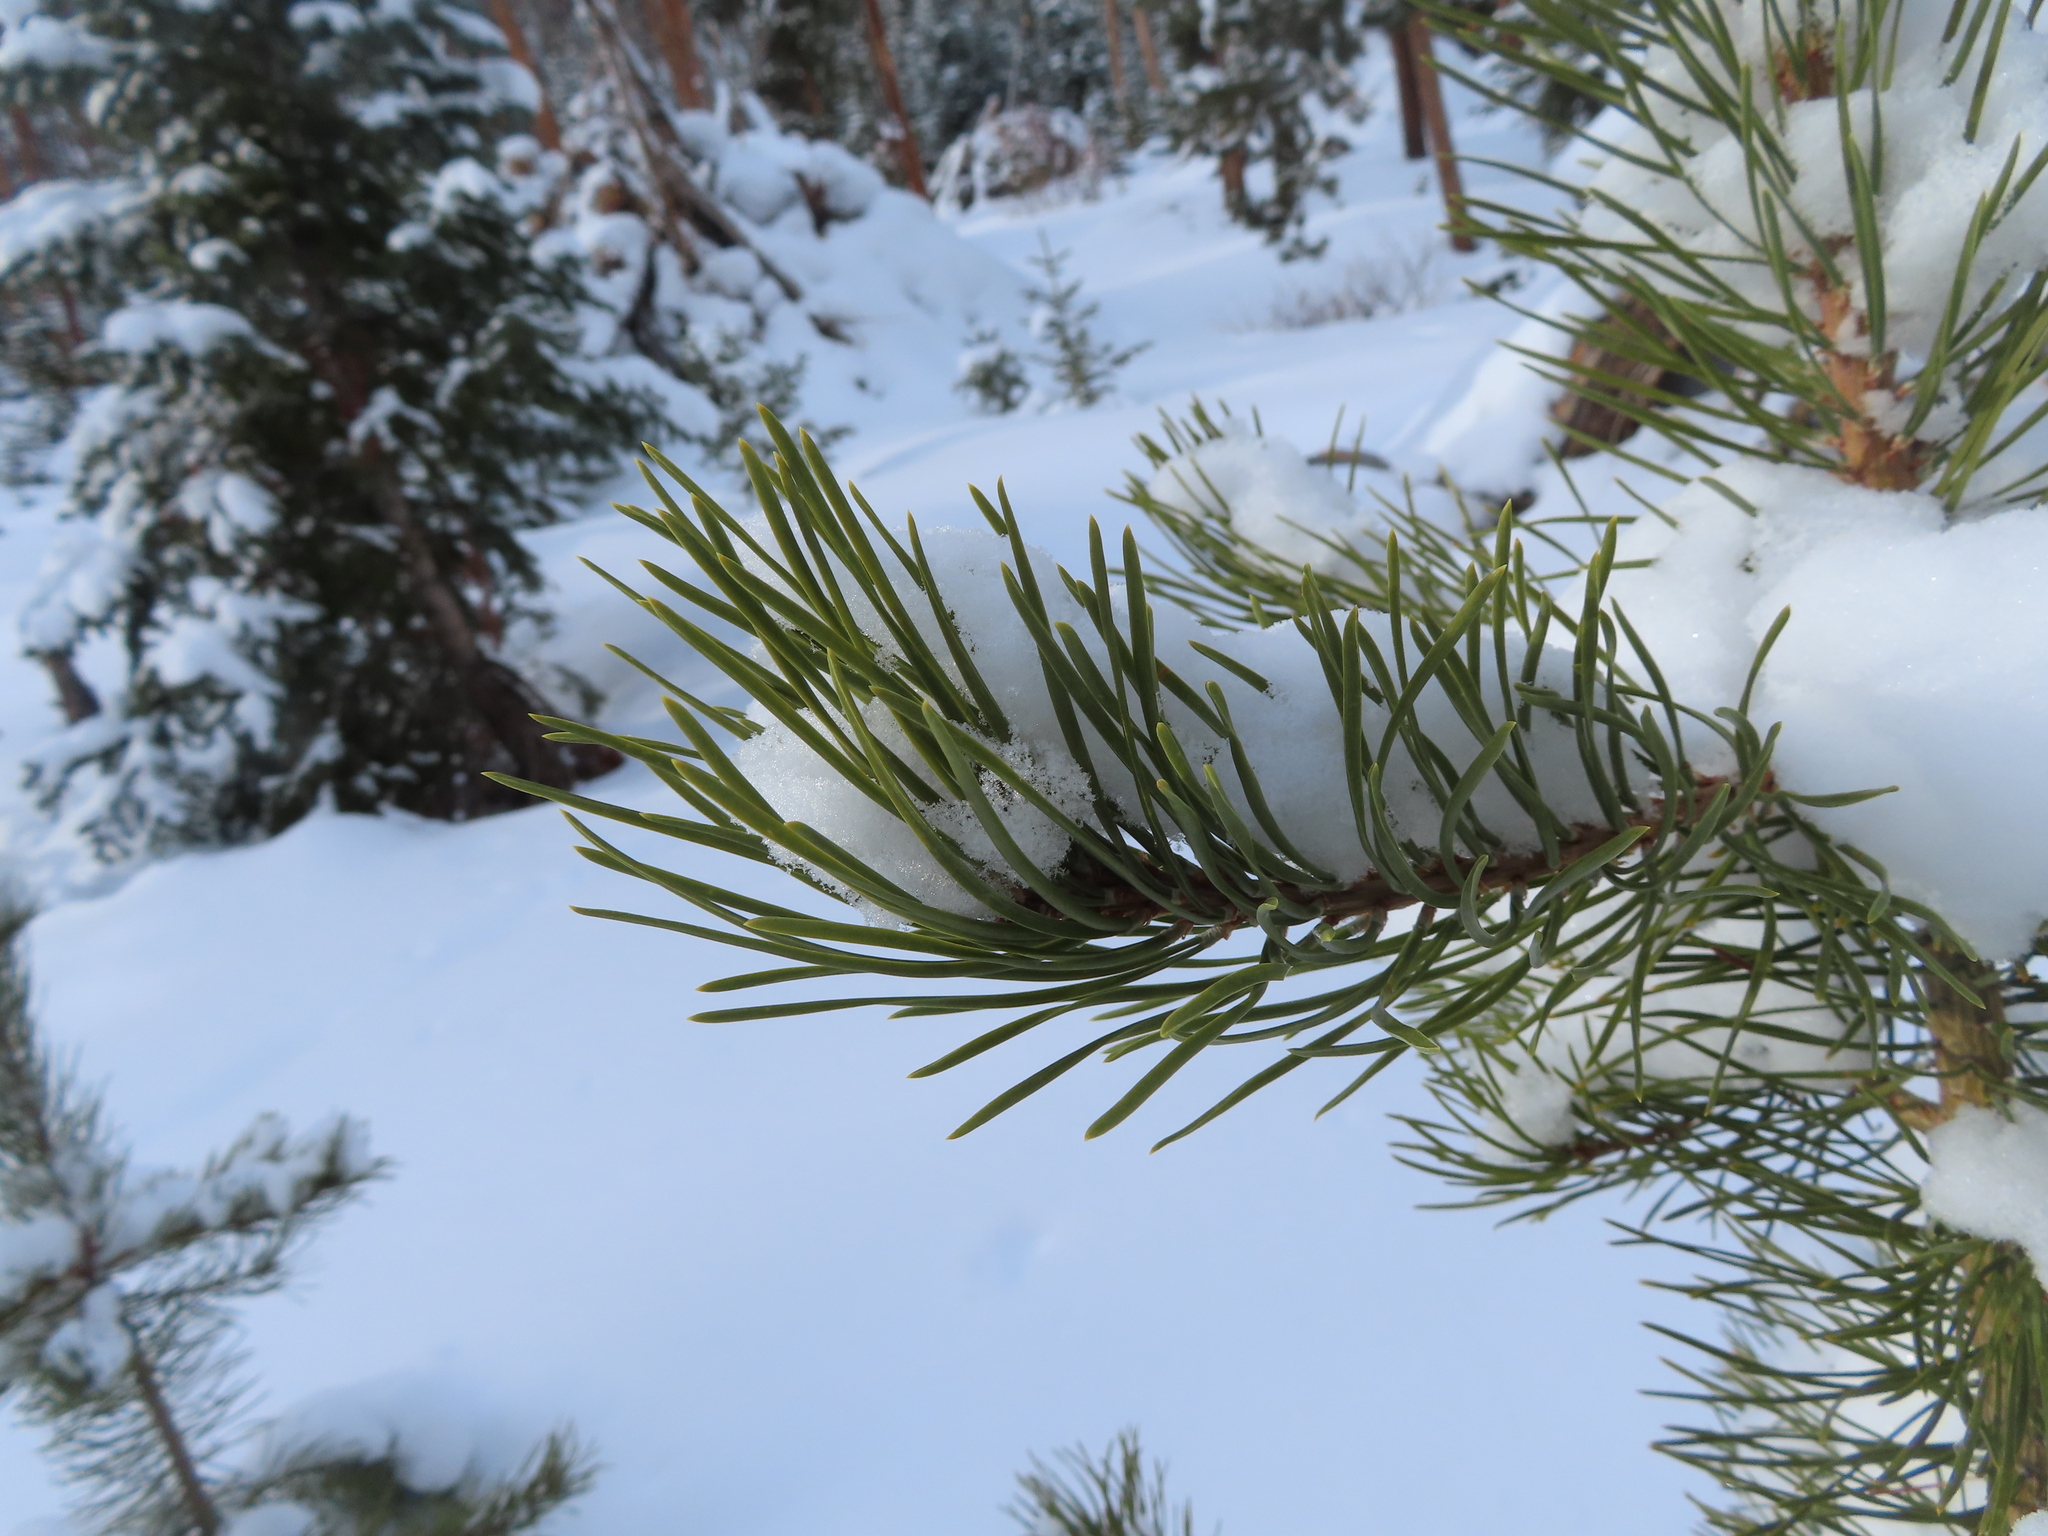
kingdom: Plantae
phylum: Tracheophyta
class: Pinopsida
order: Pinales
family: Pinaceae
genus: Pinus
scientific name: Pinus contorta
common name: Lodgepole pine
